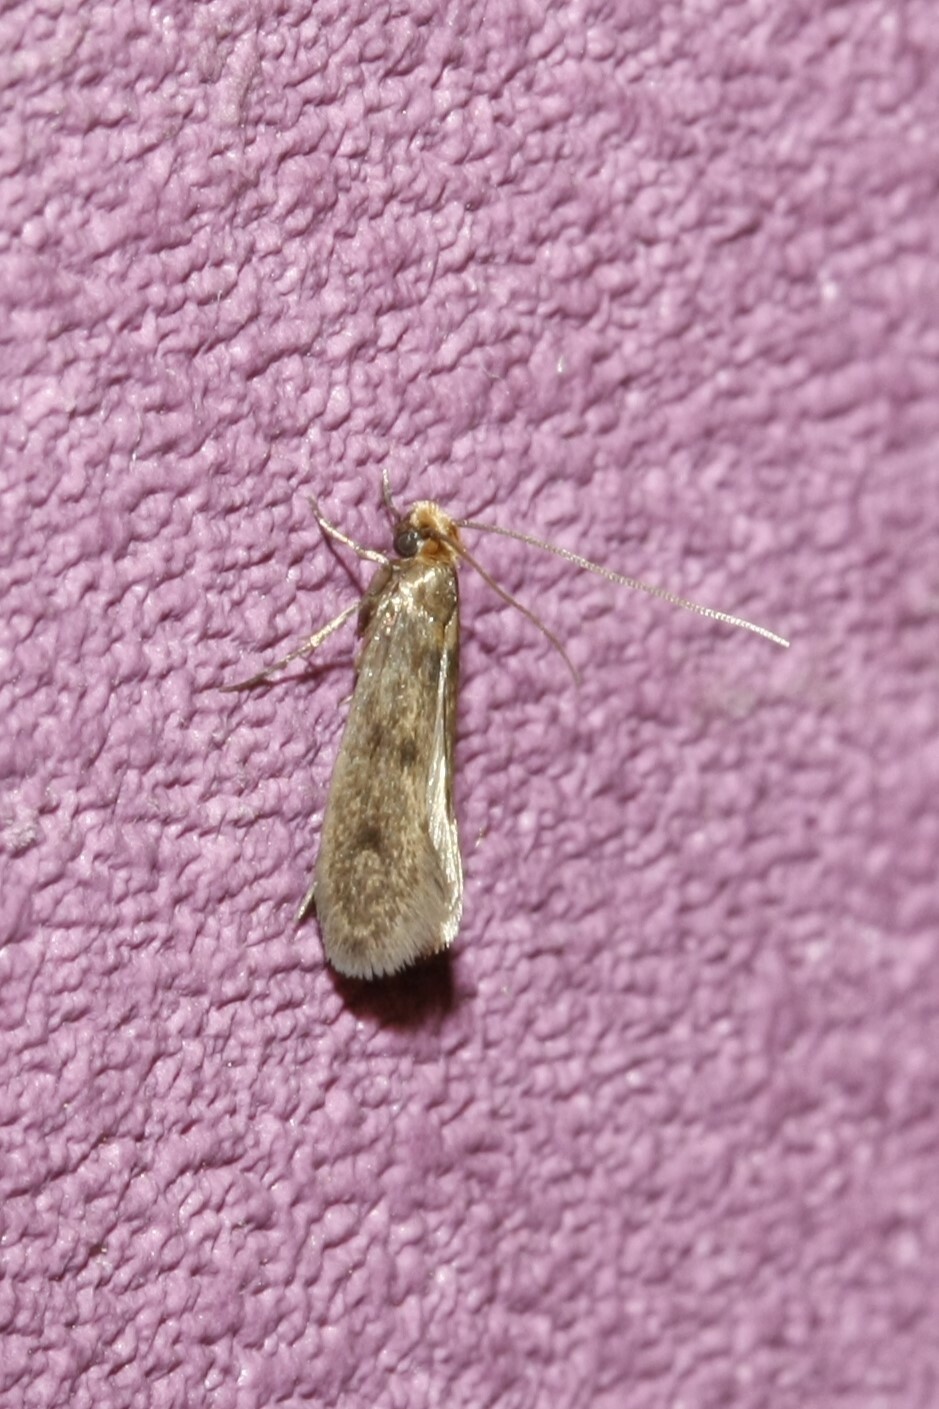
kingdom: Animalia
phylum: Arthropoda
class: Insecta
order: Lepidoptera
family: Tineidae
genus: Tinea
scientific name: Tinea pellionella
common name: Case-making clothes moth
